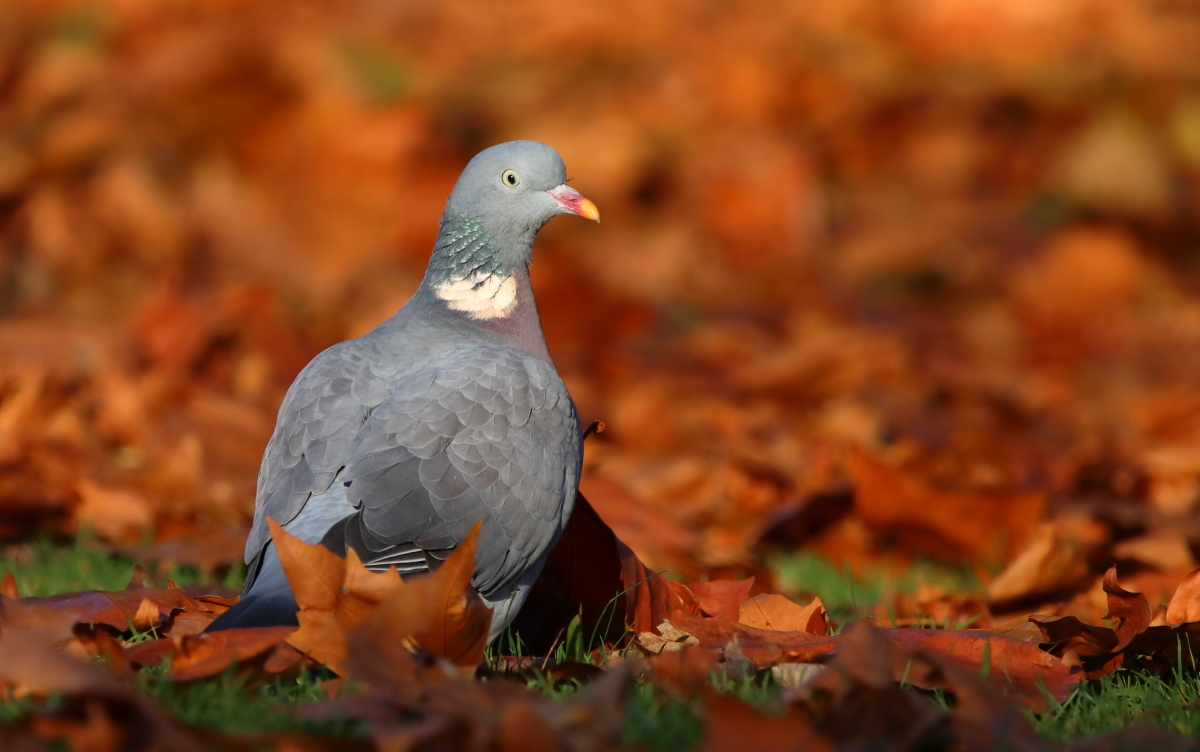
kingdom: Animalia
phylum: Chordata
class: Aves
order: Columbiformes
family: Columbidae
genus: Columba
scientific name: Columba palumbus
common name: Common wood pigeon
